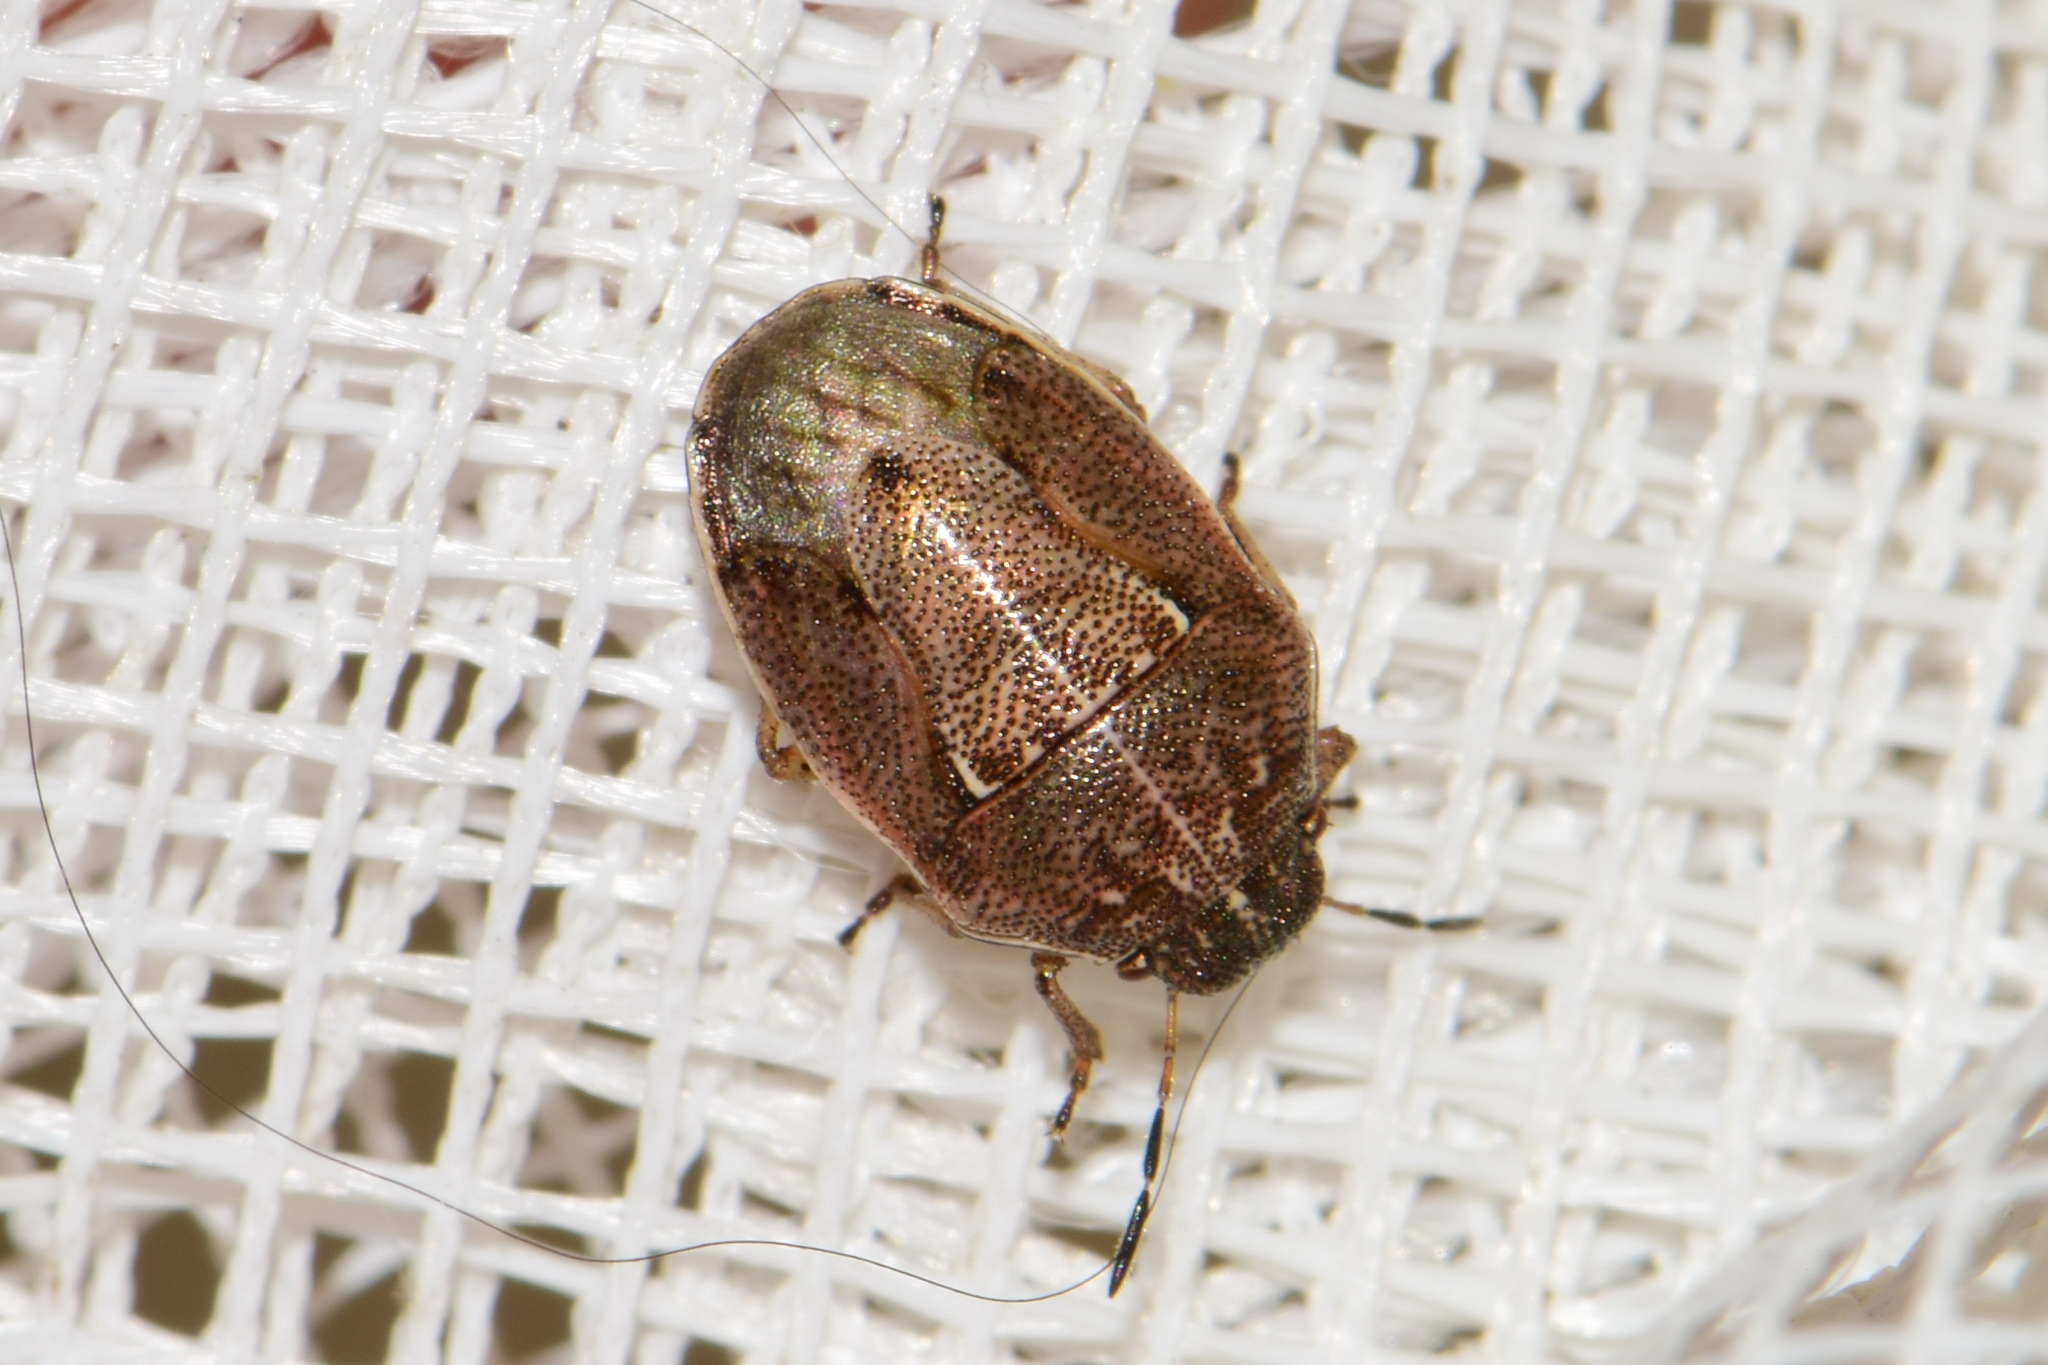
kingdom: Animalia
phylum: Arthropoda
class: Insecta
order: Hemiptera
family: Pentatomidae
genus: Neottiglossa
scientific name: Neottiglossa pusilla
